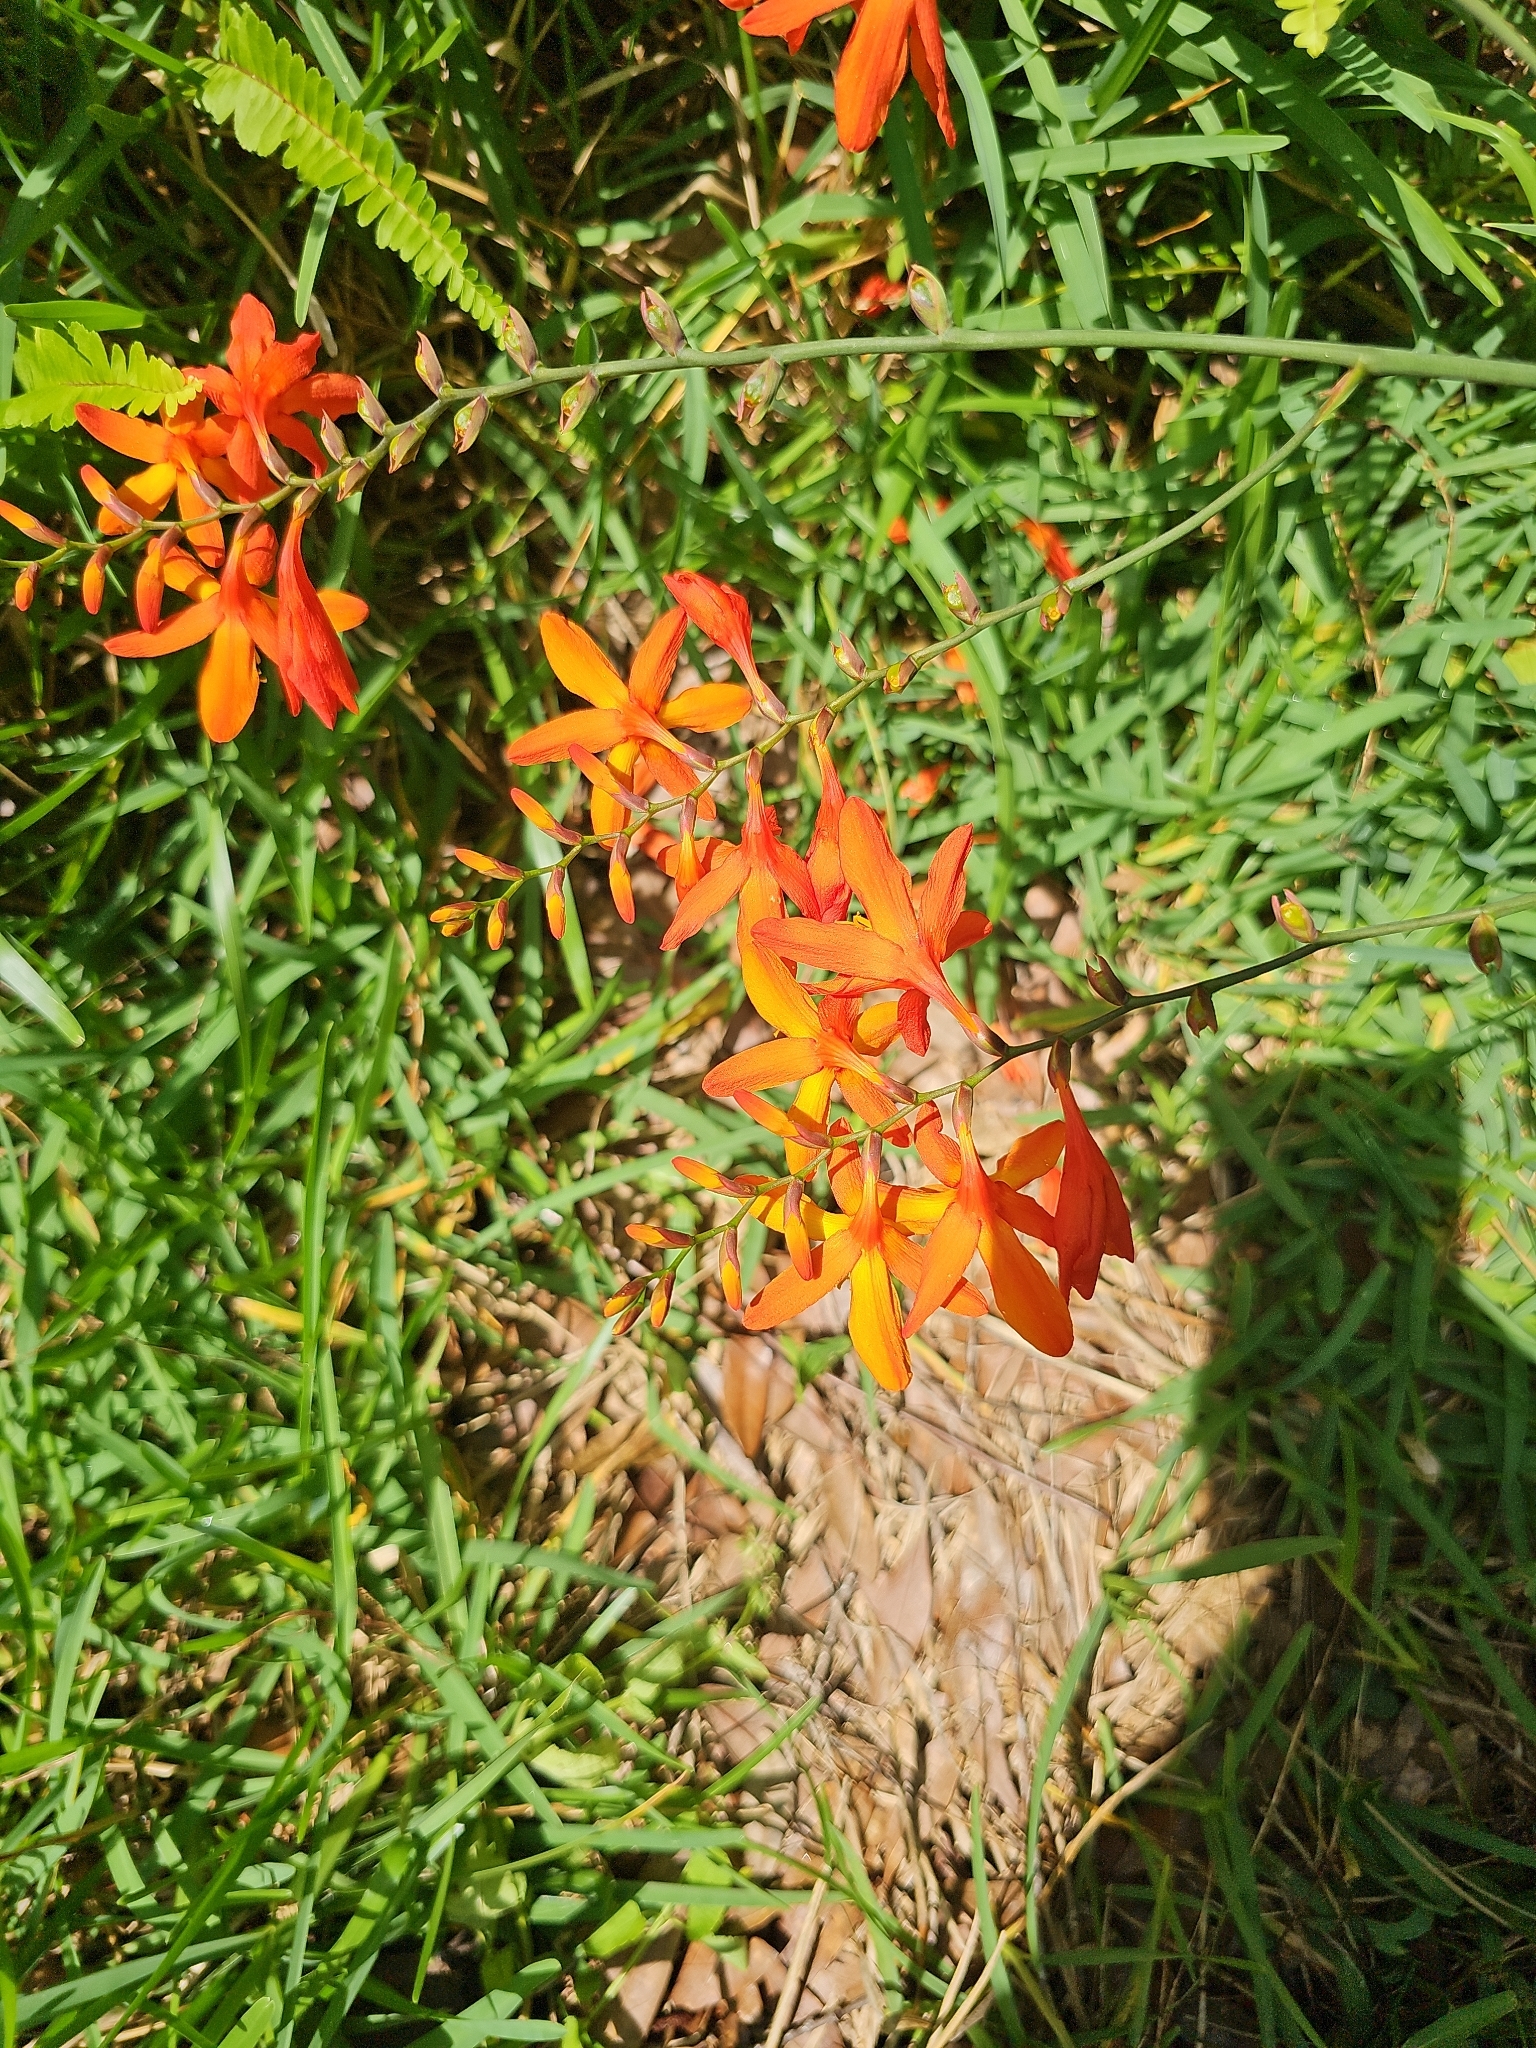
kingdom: Plantae
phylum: Tracheophyta
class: Liliopsida
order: Asparagales
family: Iridaceae
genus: Crocosmia
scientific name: Crocosmia crocosmiiflora
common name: Montbretia
